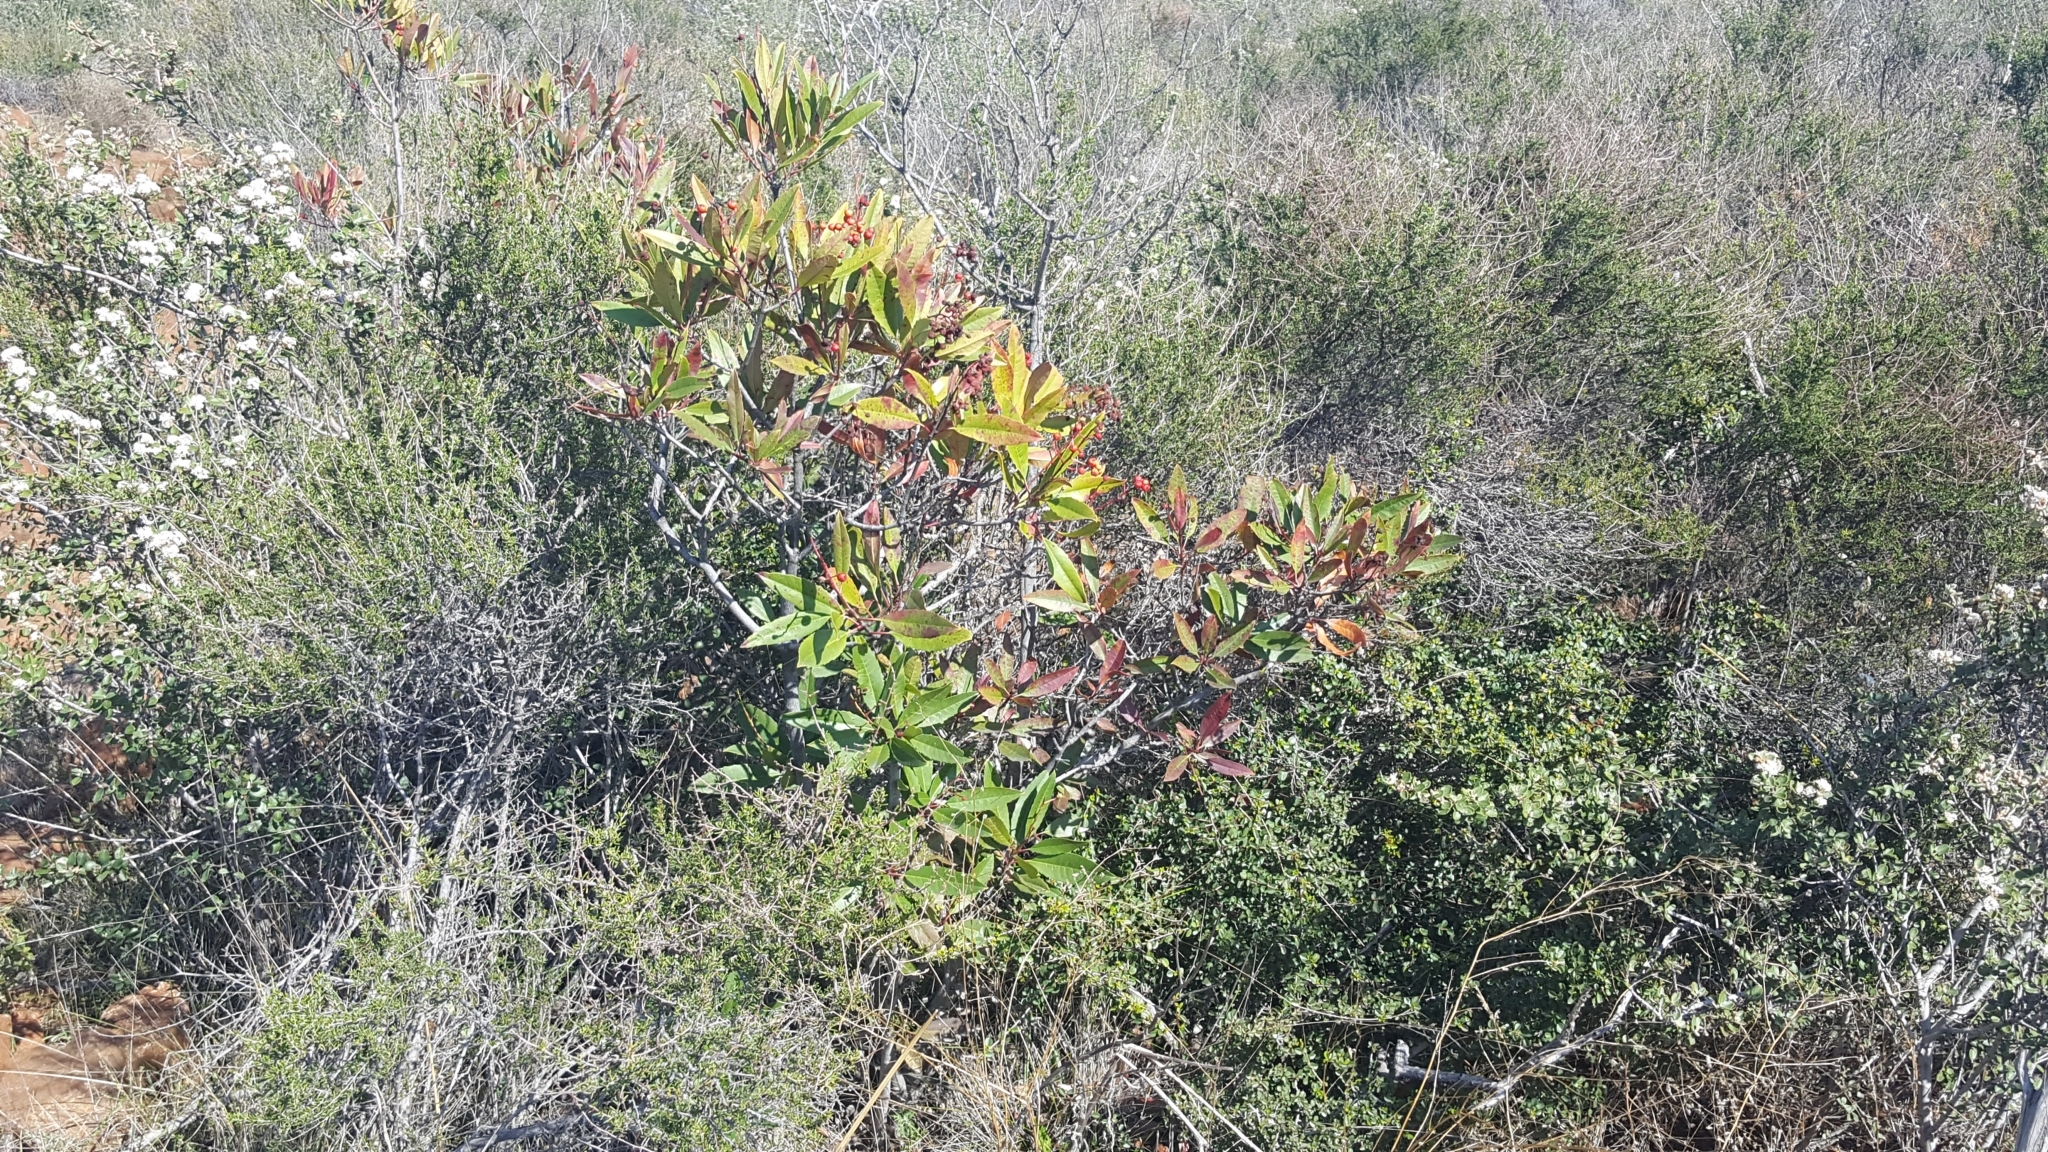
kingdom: Plantae
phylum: Tracheophyta
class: Magnoliopsida
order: Rosales
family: Rosaceae
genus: Heteromeles
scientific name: Heteromeles arbutifolia
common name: California-holly
